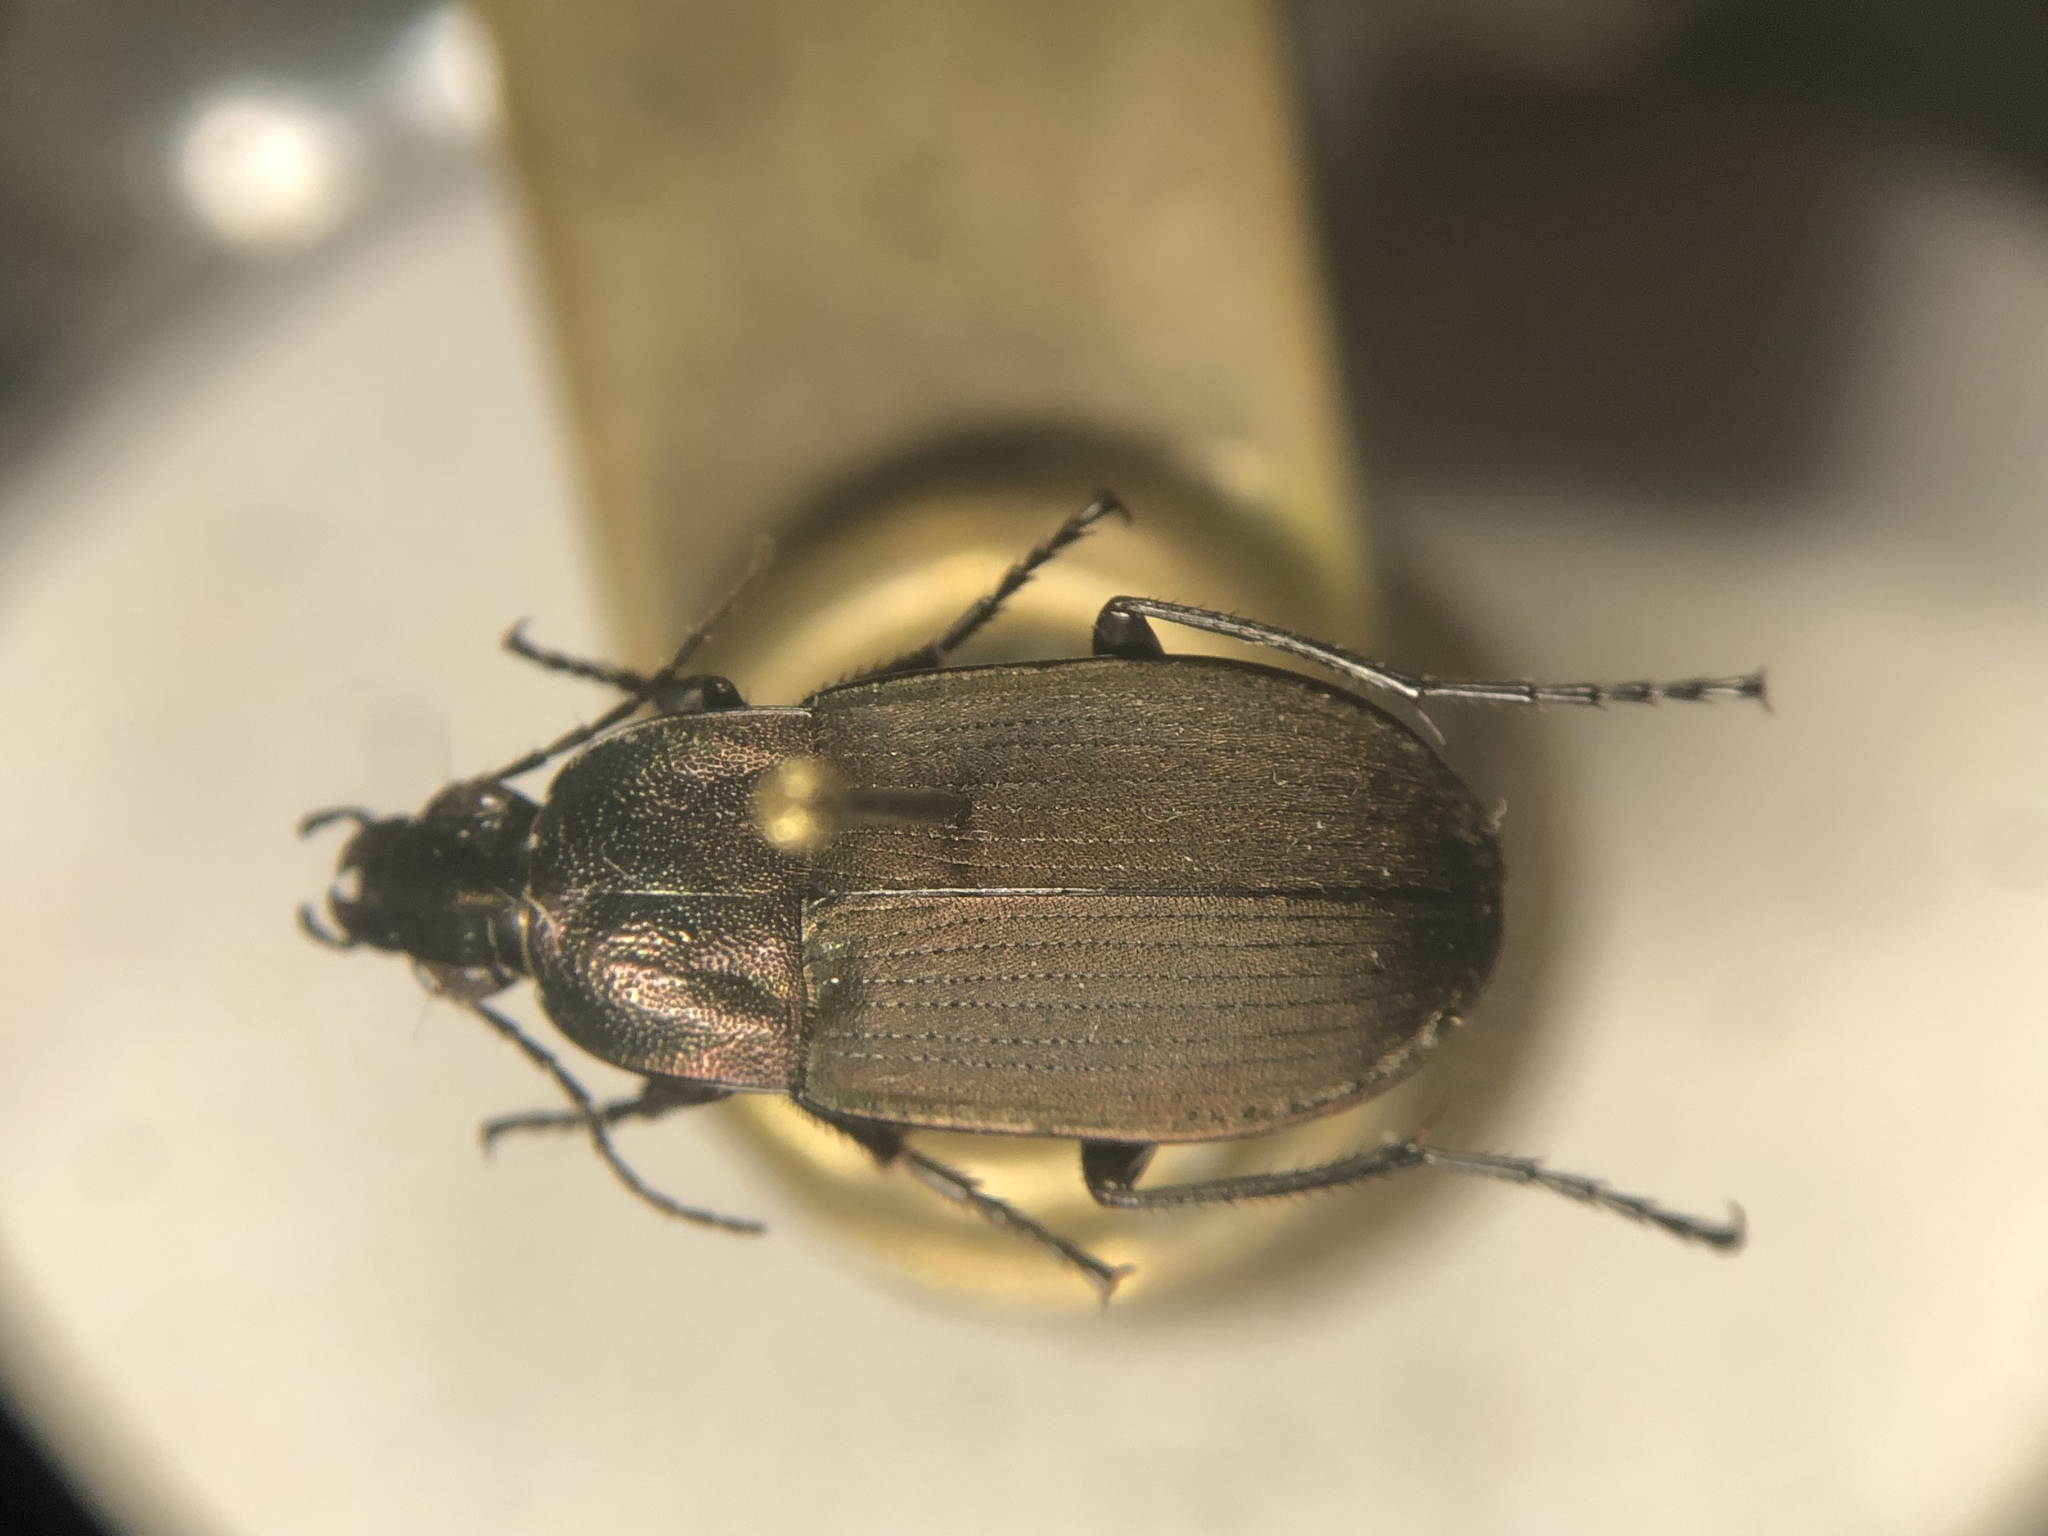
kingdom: Animalia
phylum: Arthropoda
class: Insecta
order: Coleoptera
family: Carabidae
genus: Chlaenius
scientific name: Chlaenius tomentosus
